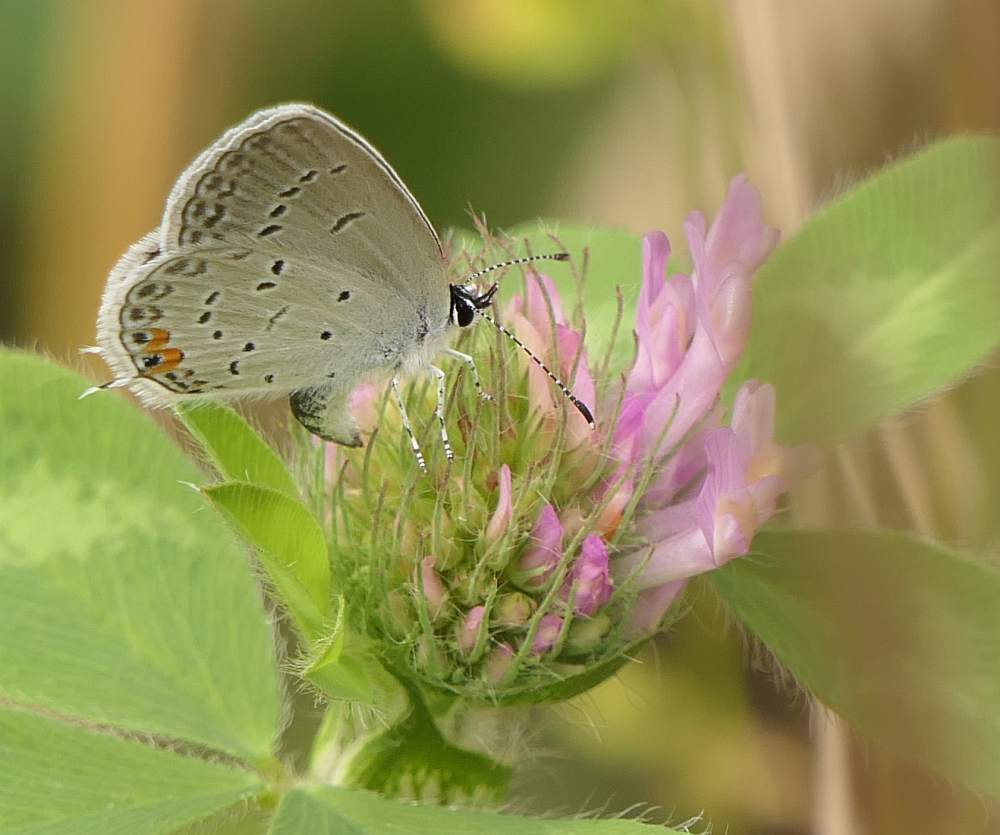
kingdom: Animalia
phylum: Arthropoda
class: Insecta
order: Lepidoptera
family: Lycaenidae
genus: Elkalyce
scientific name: Elkalyce comyntas
